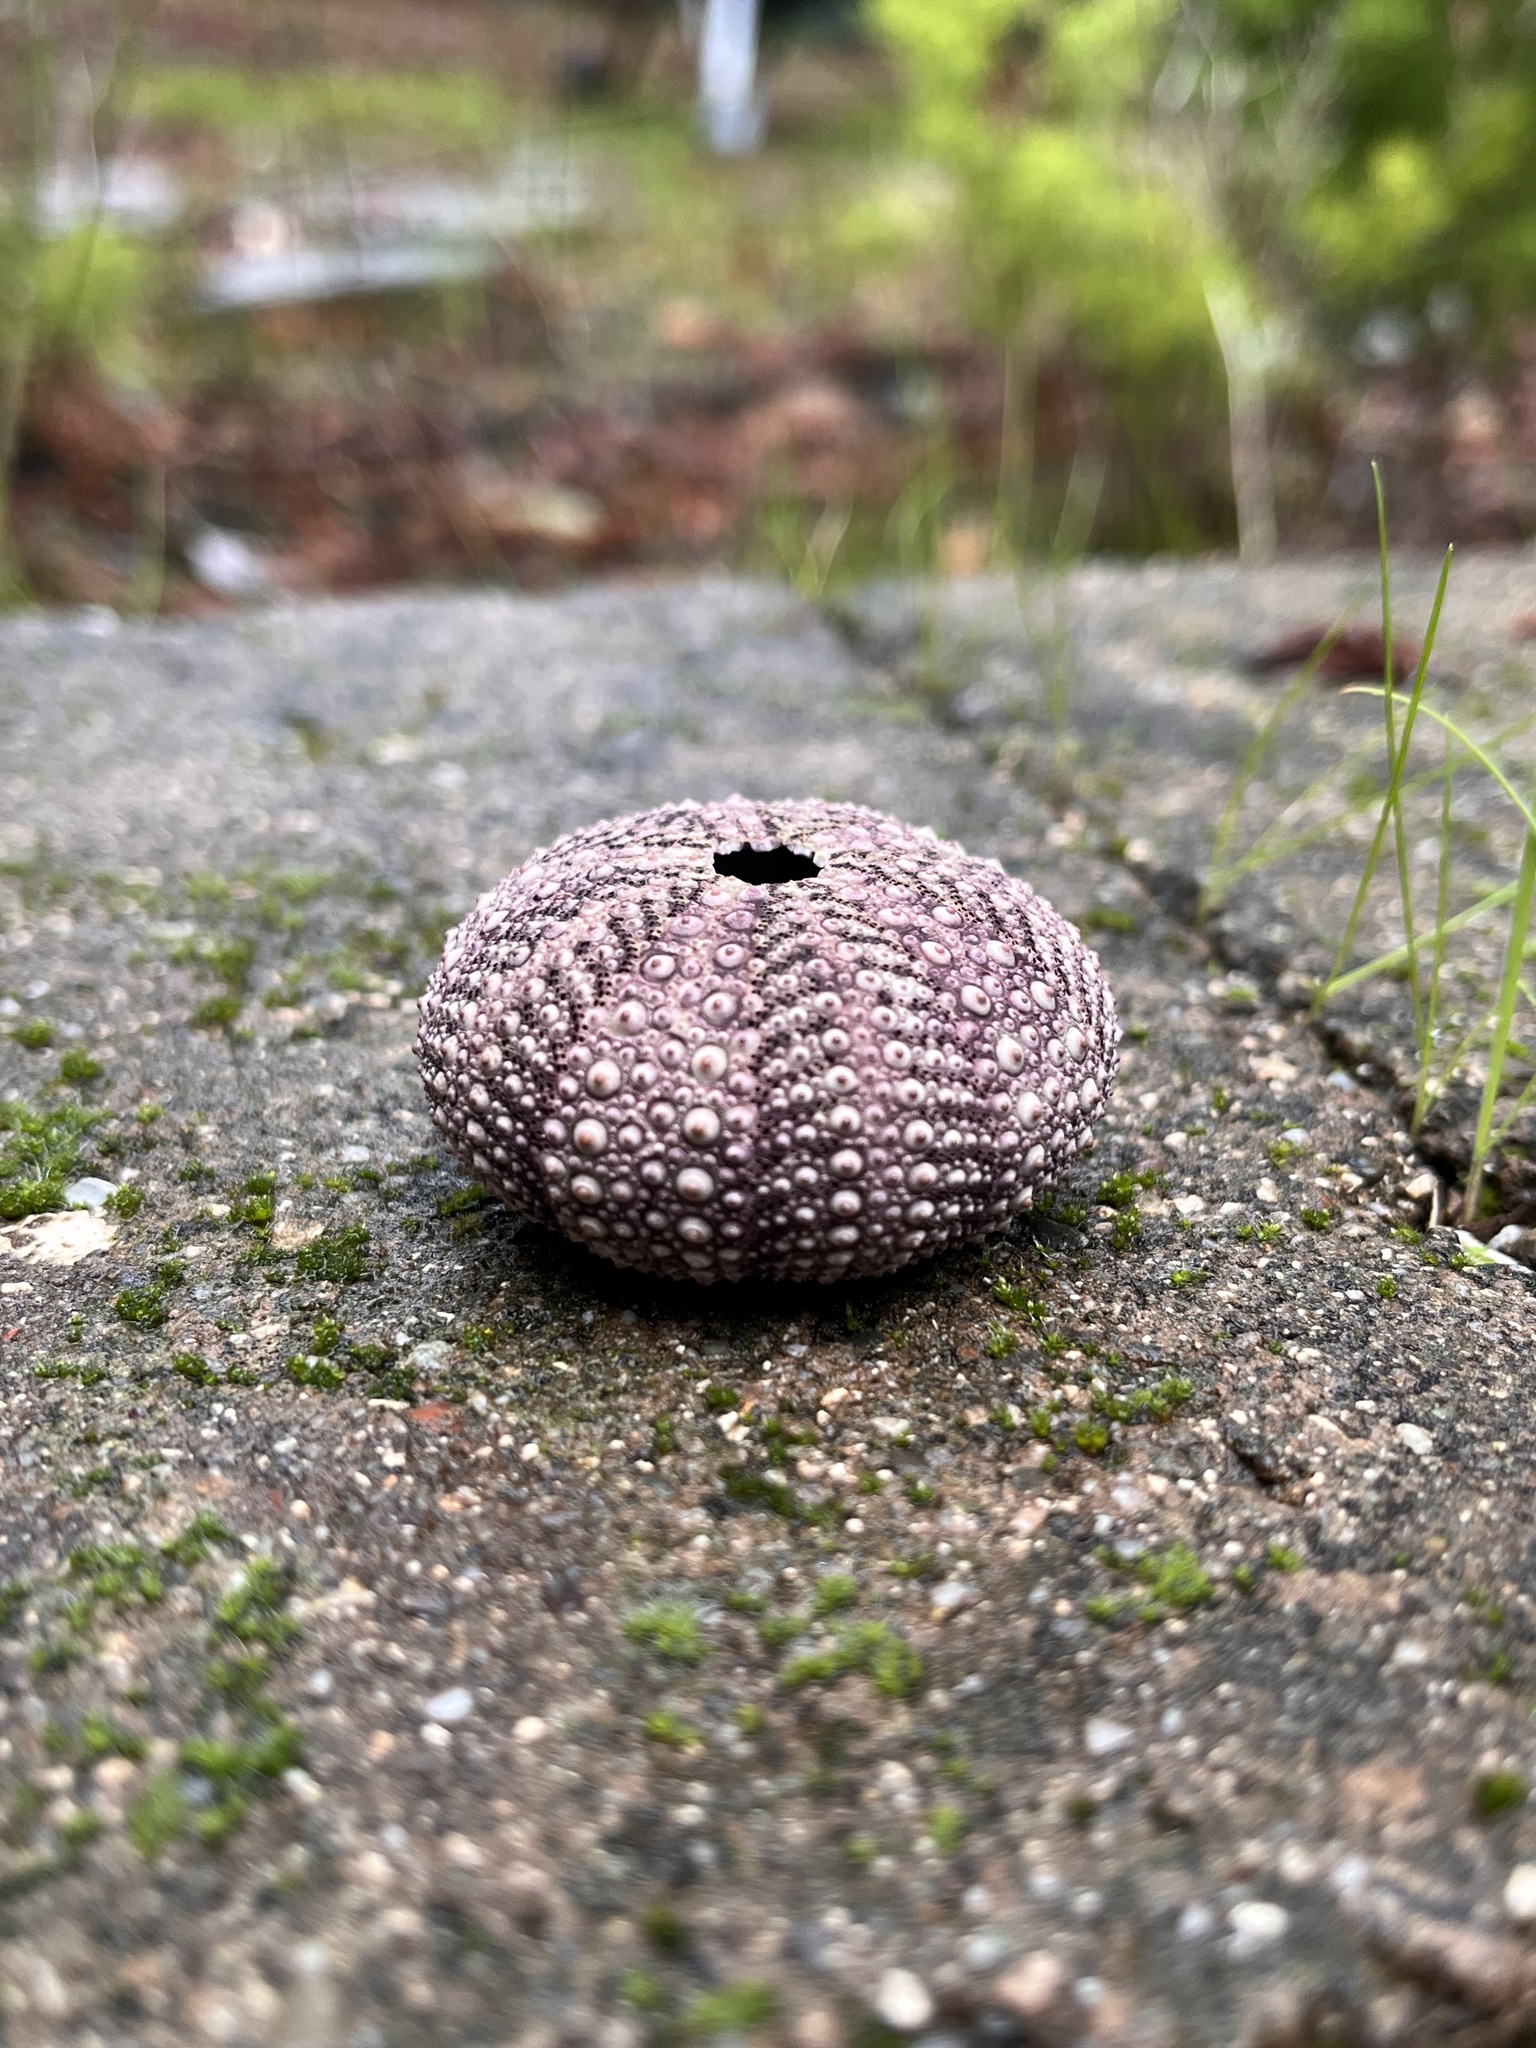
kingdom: Animalia
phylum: Echinodermata
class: Echinoidea
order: Camarodonta
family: Strongylocentrotidae
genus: Strongylocentrotus
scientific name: Strongylocentrotus purpuratus
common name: Purple sea urchin
